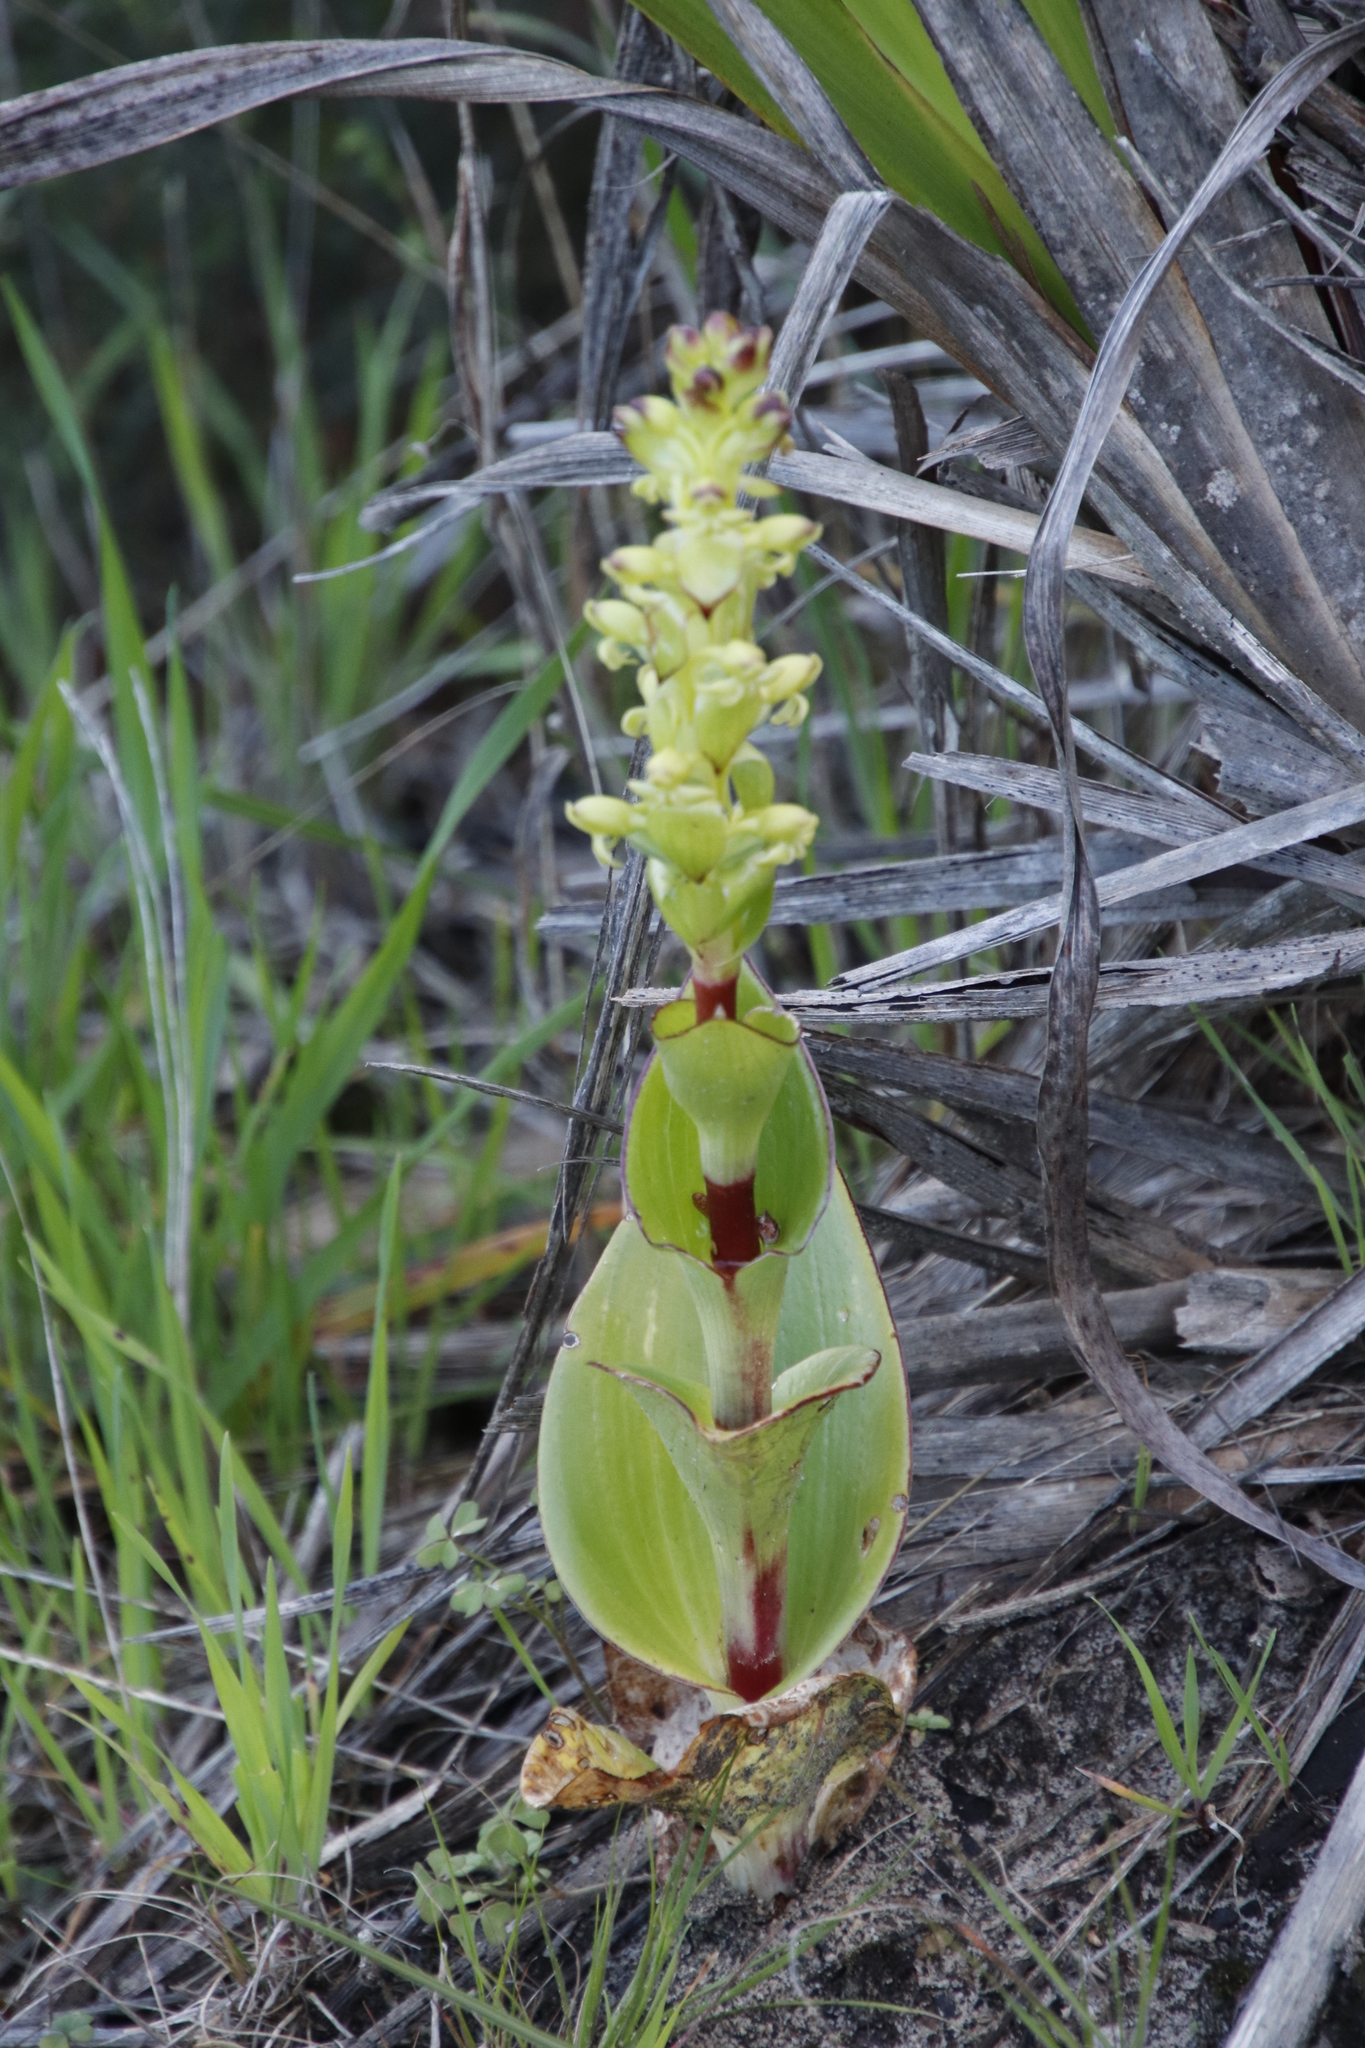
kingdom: Plantae
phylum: Tracheophyta
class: Liliopsida
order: Asparagales
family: Orchidaceae
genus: Satyrium
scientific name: Satyrium odorum
